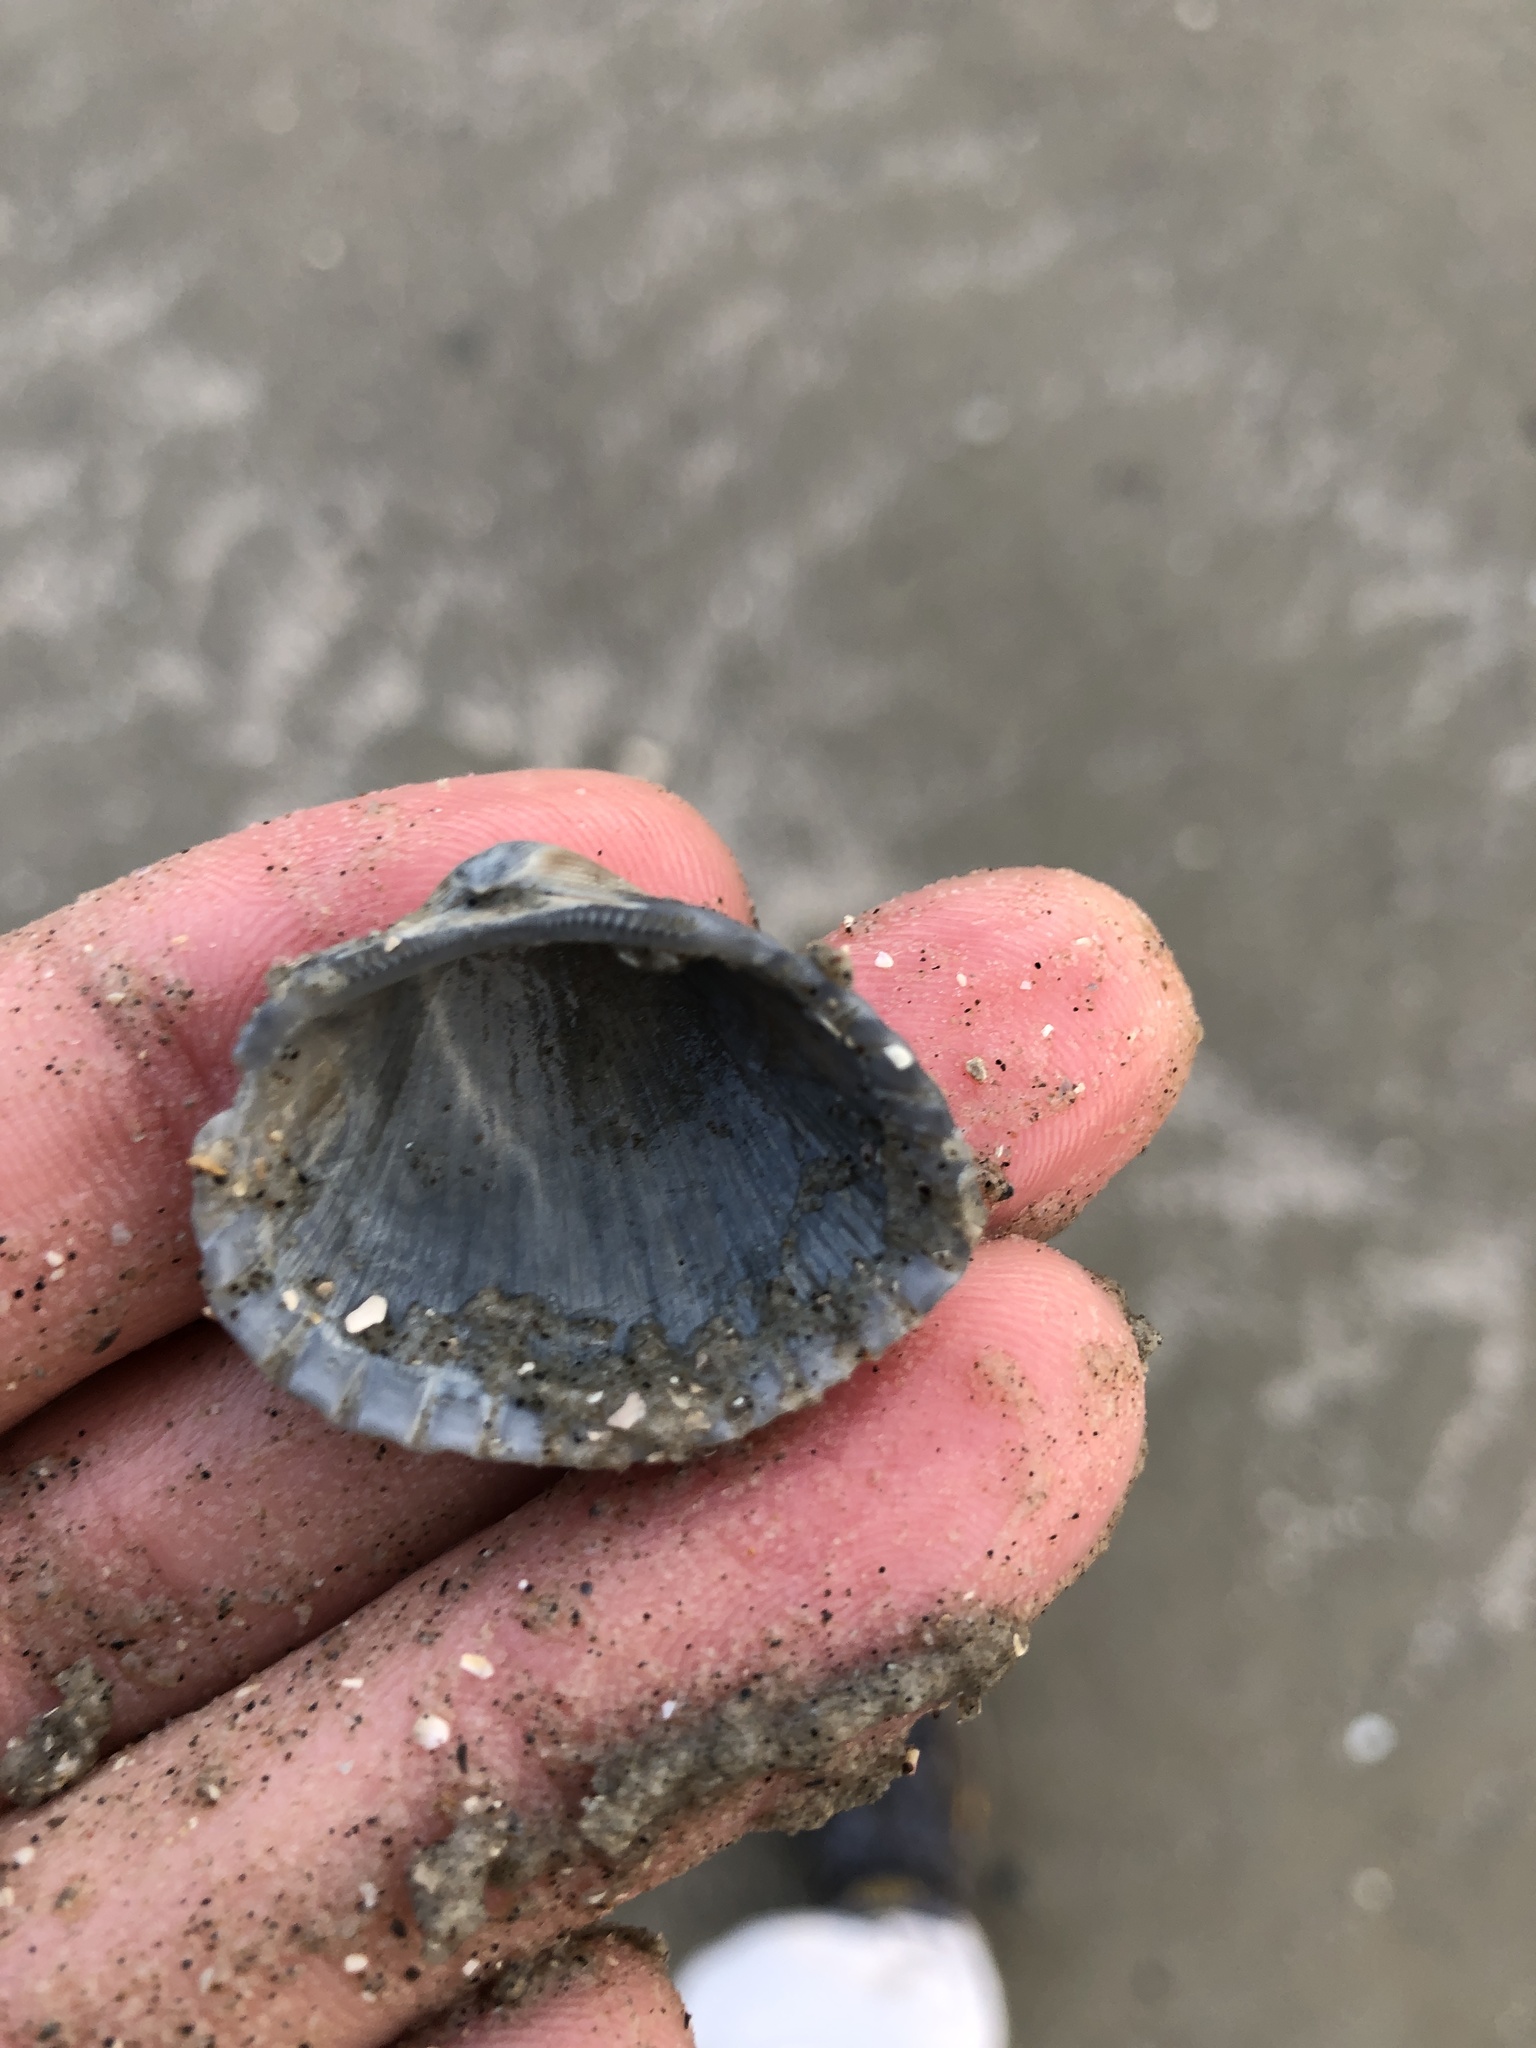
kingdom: Animalia
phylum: Mollusca
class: Bivalvia
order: Arcida
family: Arcidae
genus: Anadara
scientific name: Anadara brasiliana
